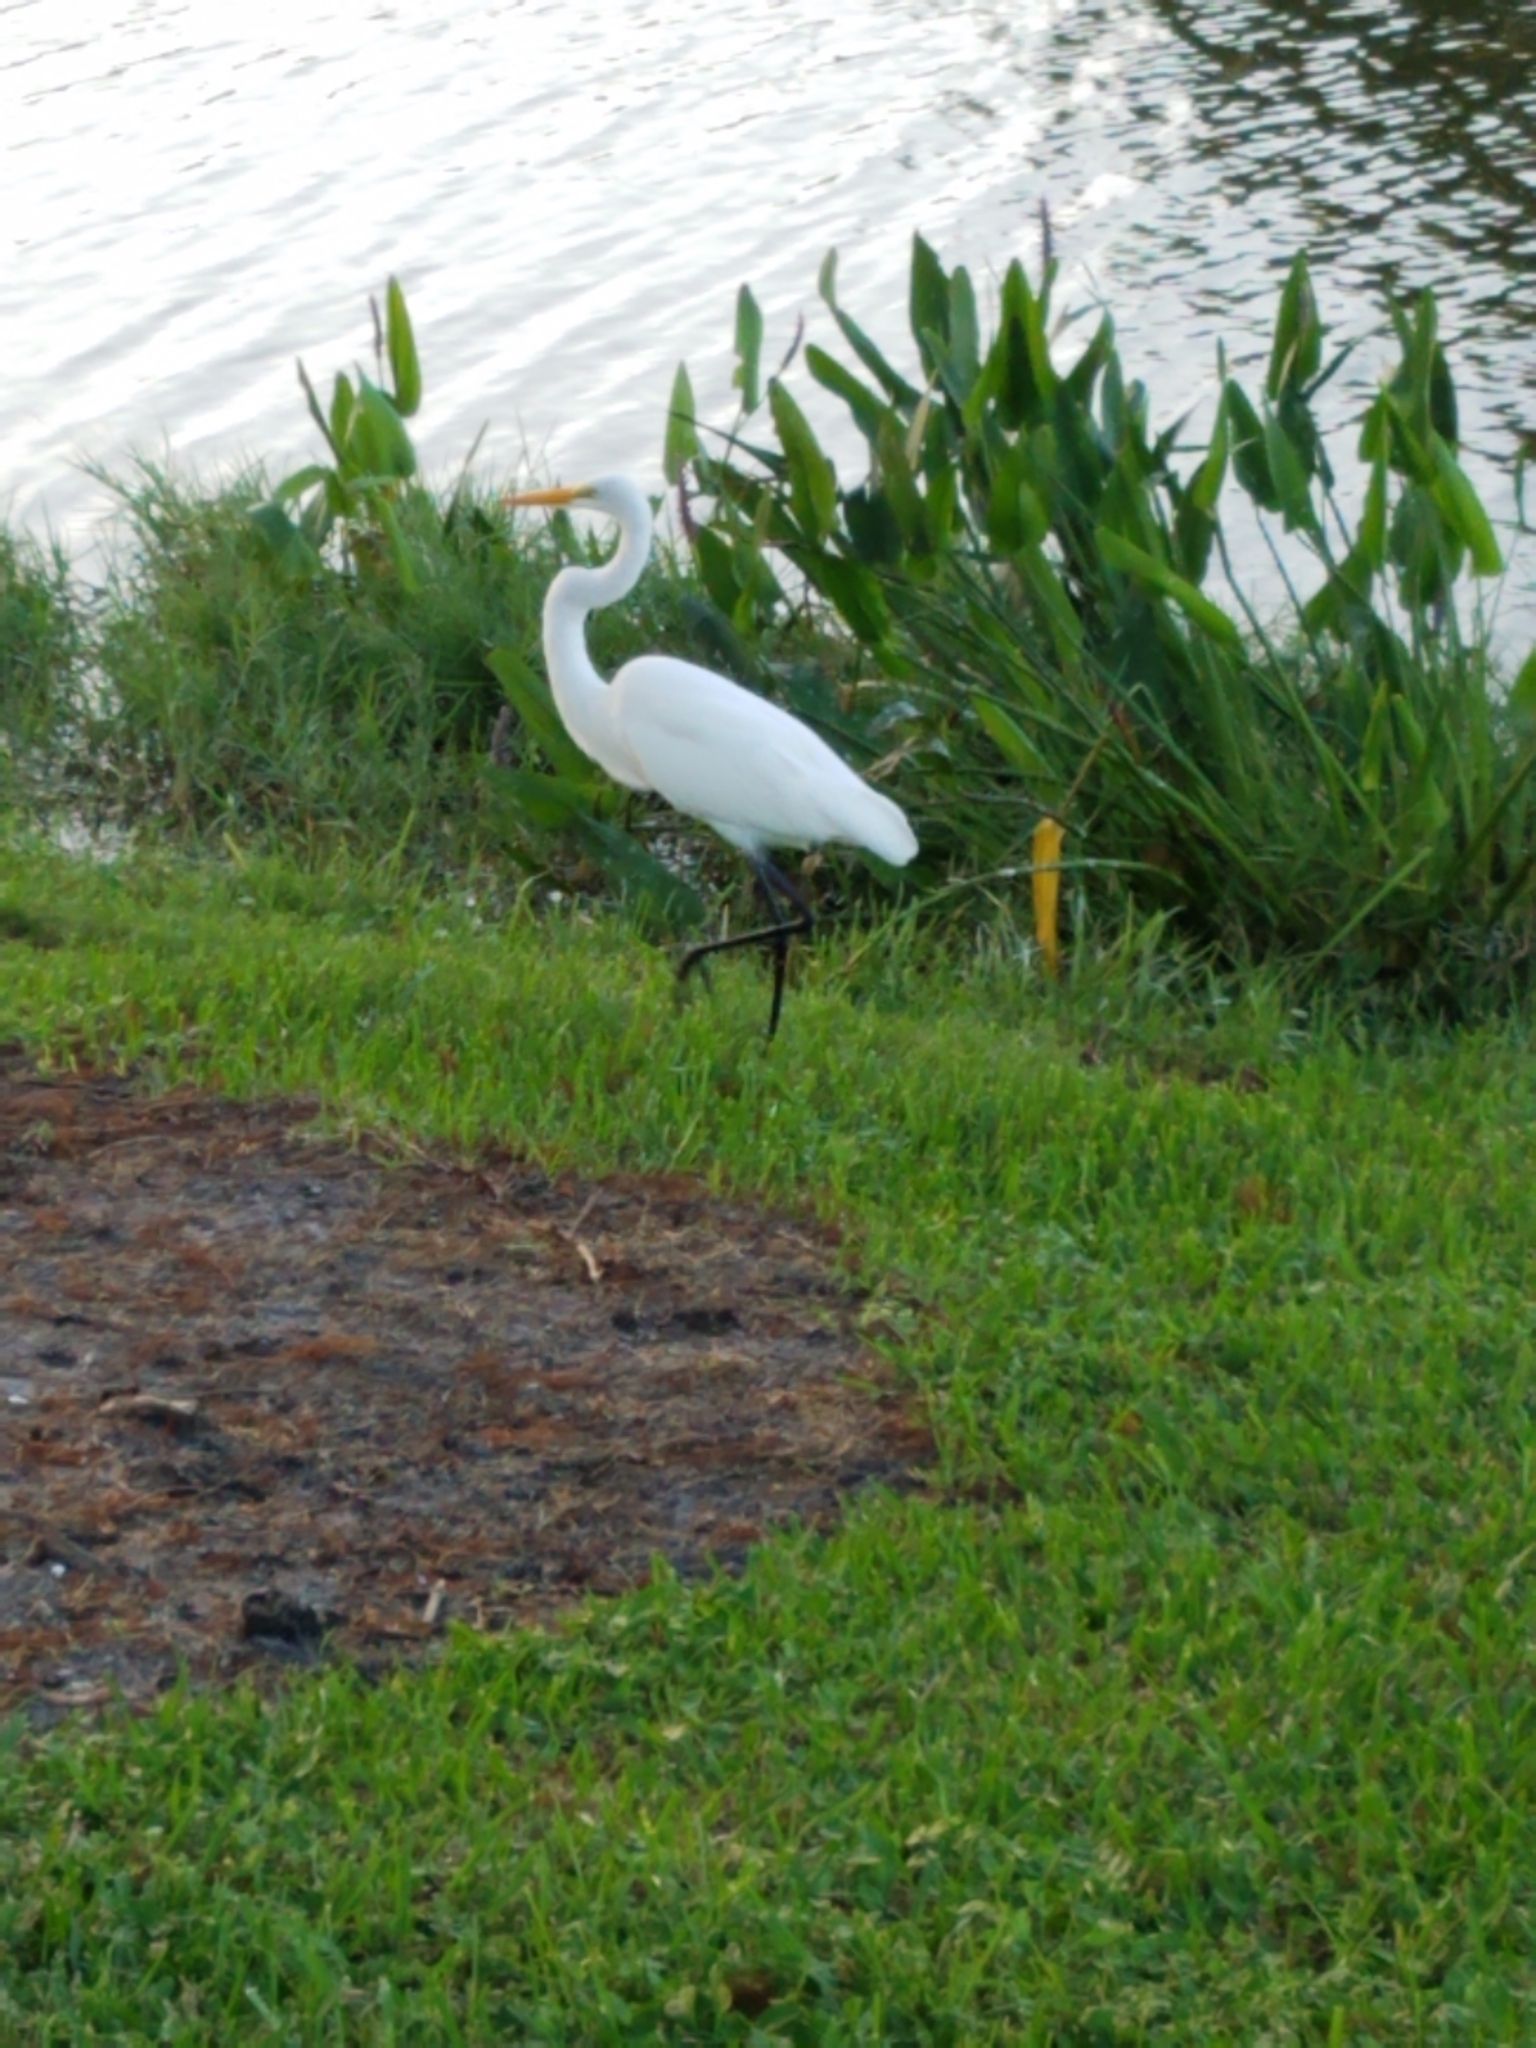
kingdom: Animalia
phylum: Chordata
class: Aves
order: Pelecaniformes
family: Ardeidae
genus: Ardea
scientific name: Ardea alba
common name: Great egret
